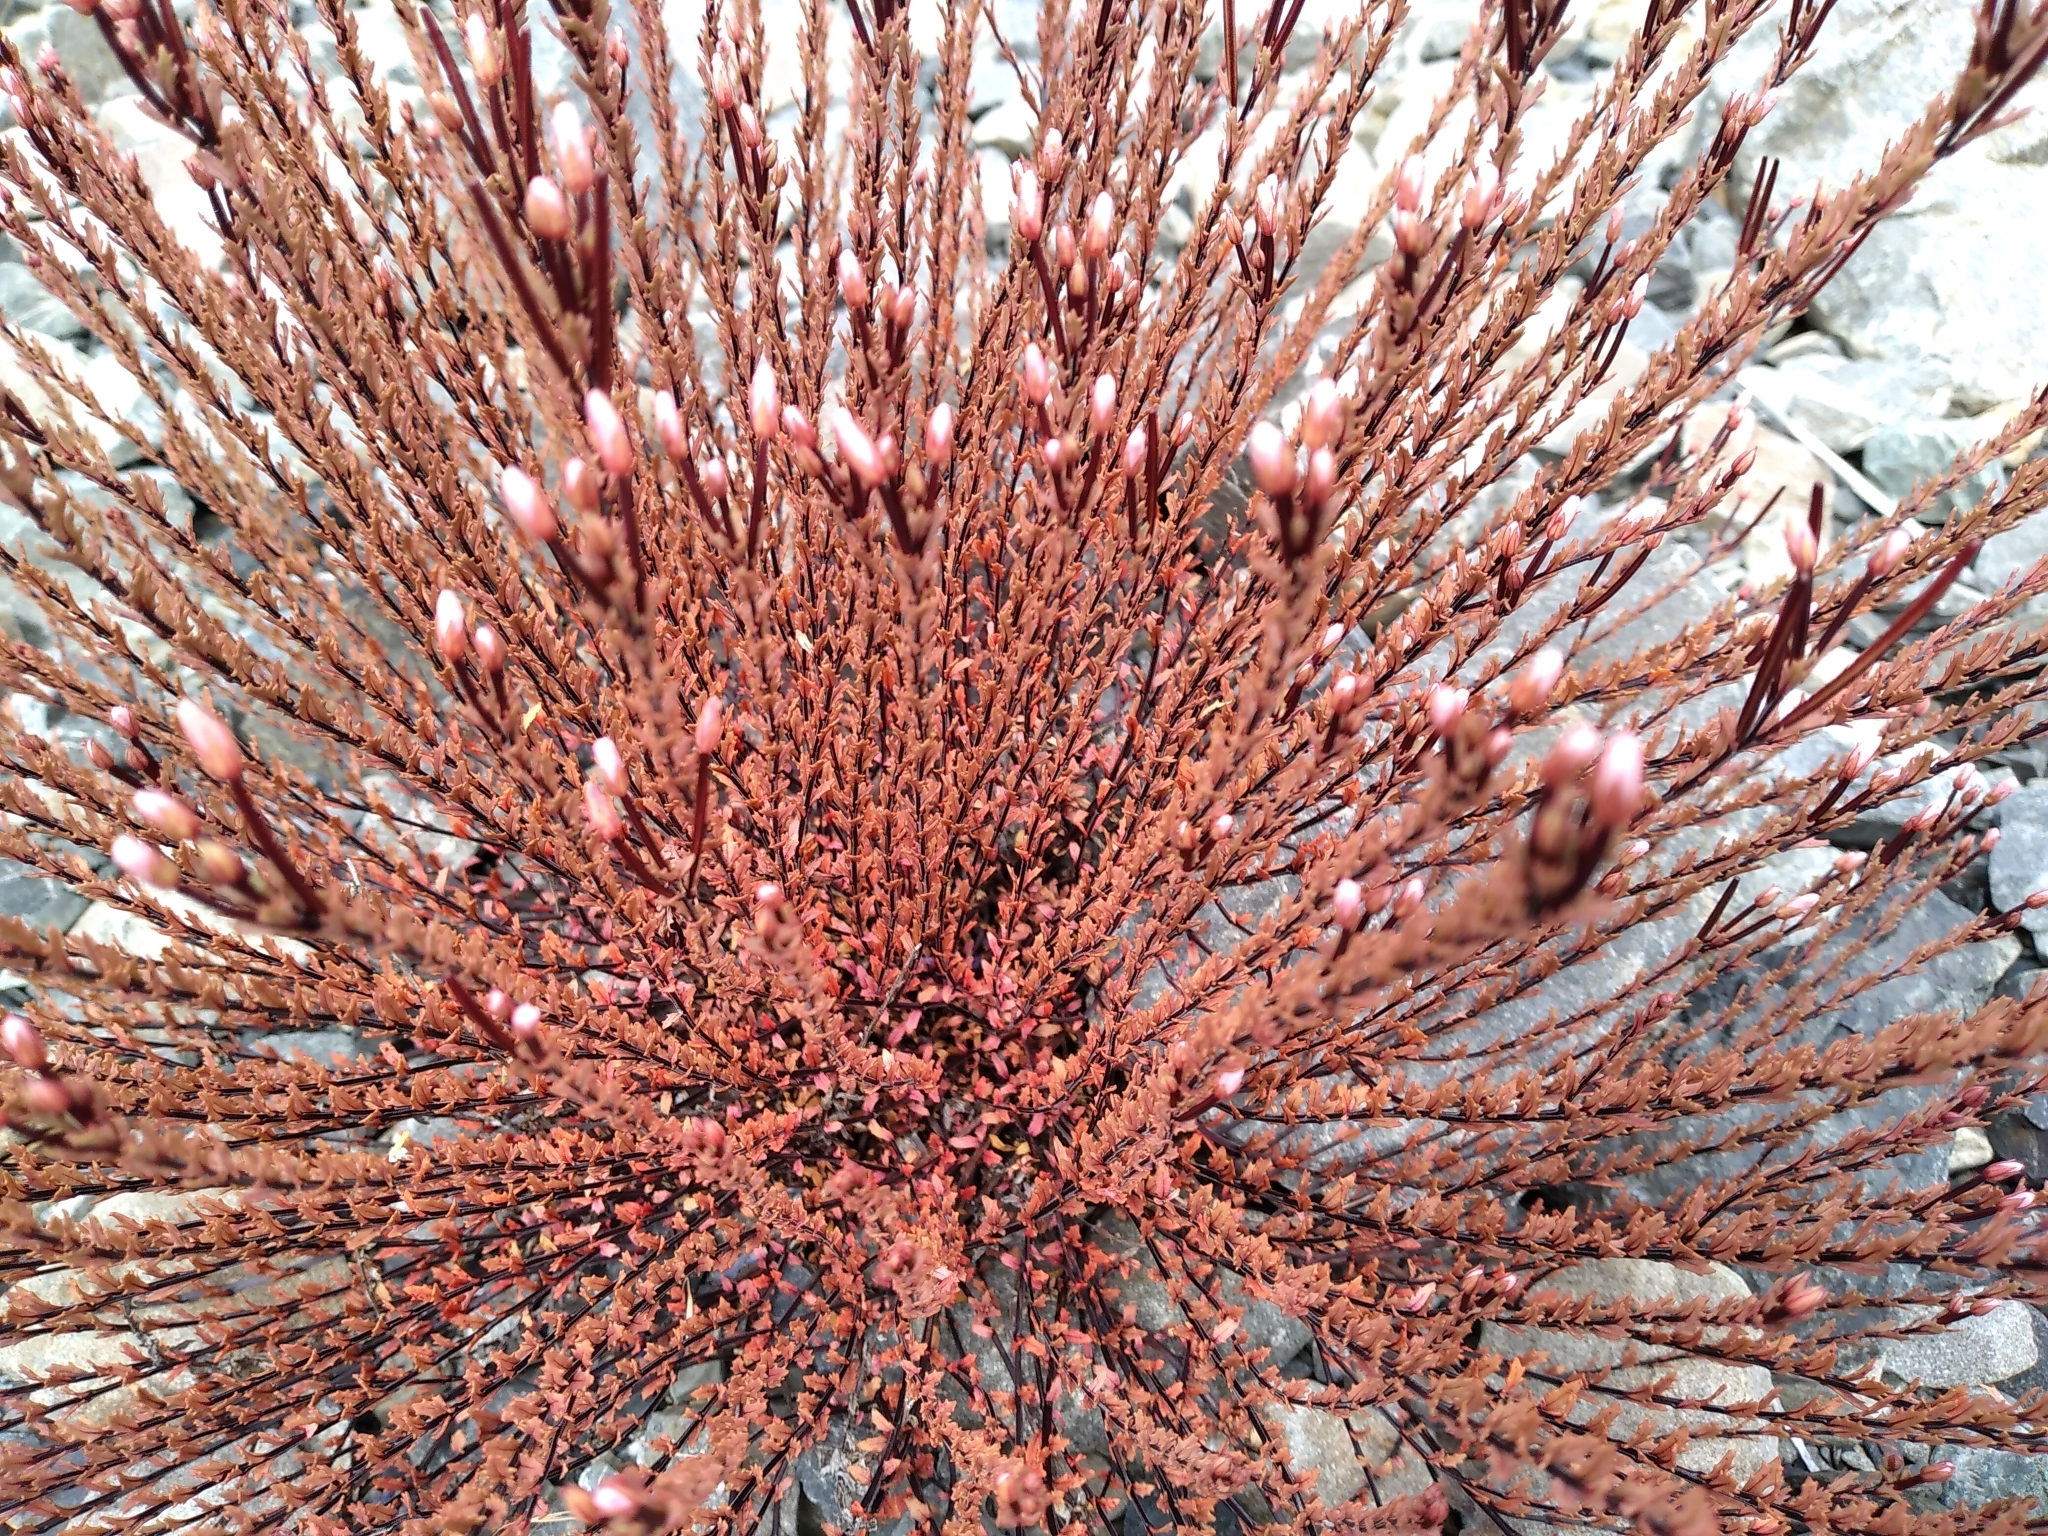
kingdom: Plantae
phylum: Tracheophyta
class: Magnoliopsida
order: Myrtales
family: Onagraceae
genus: Epilobium
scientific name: Epilobium melanocaulon
